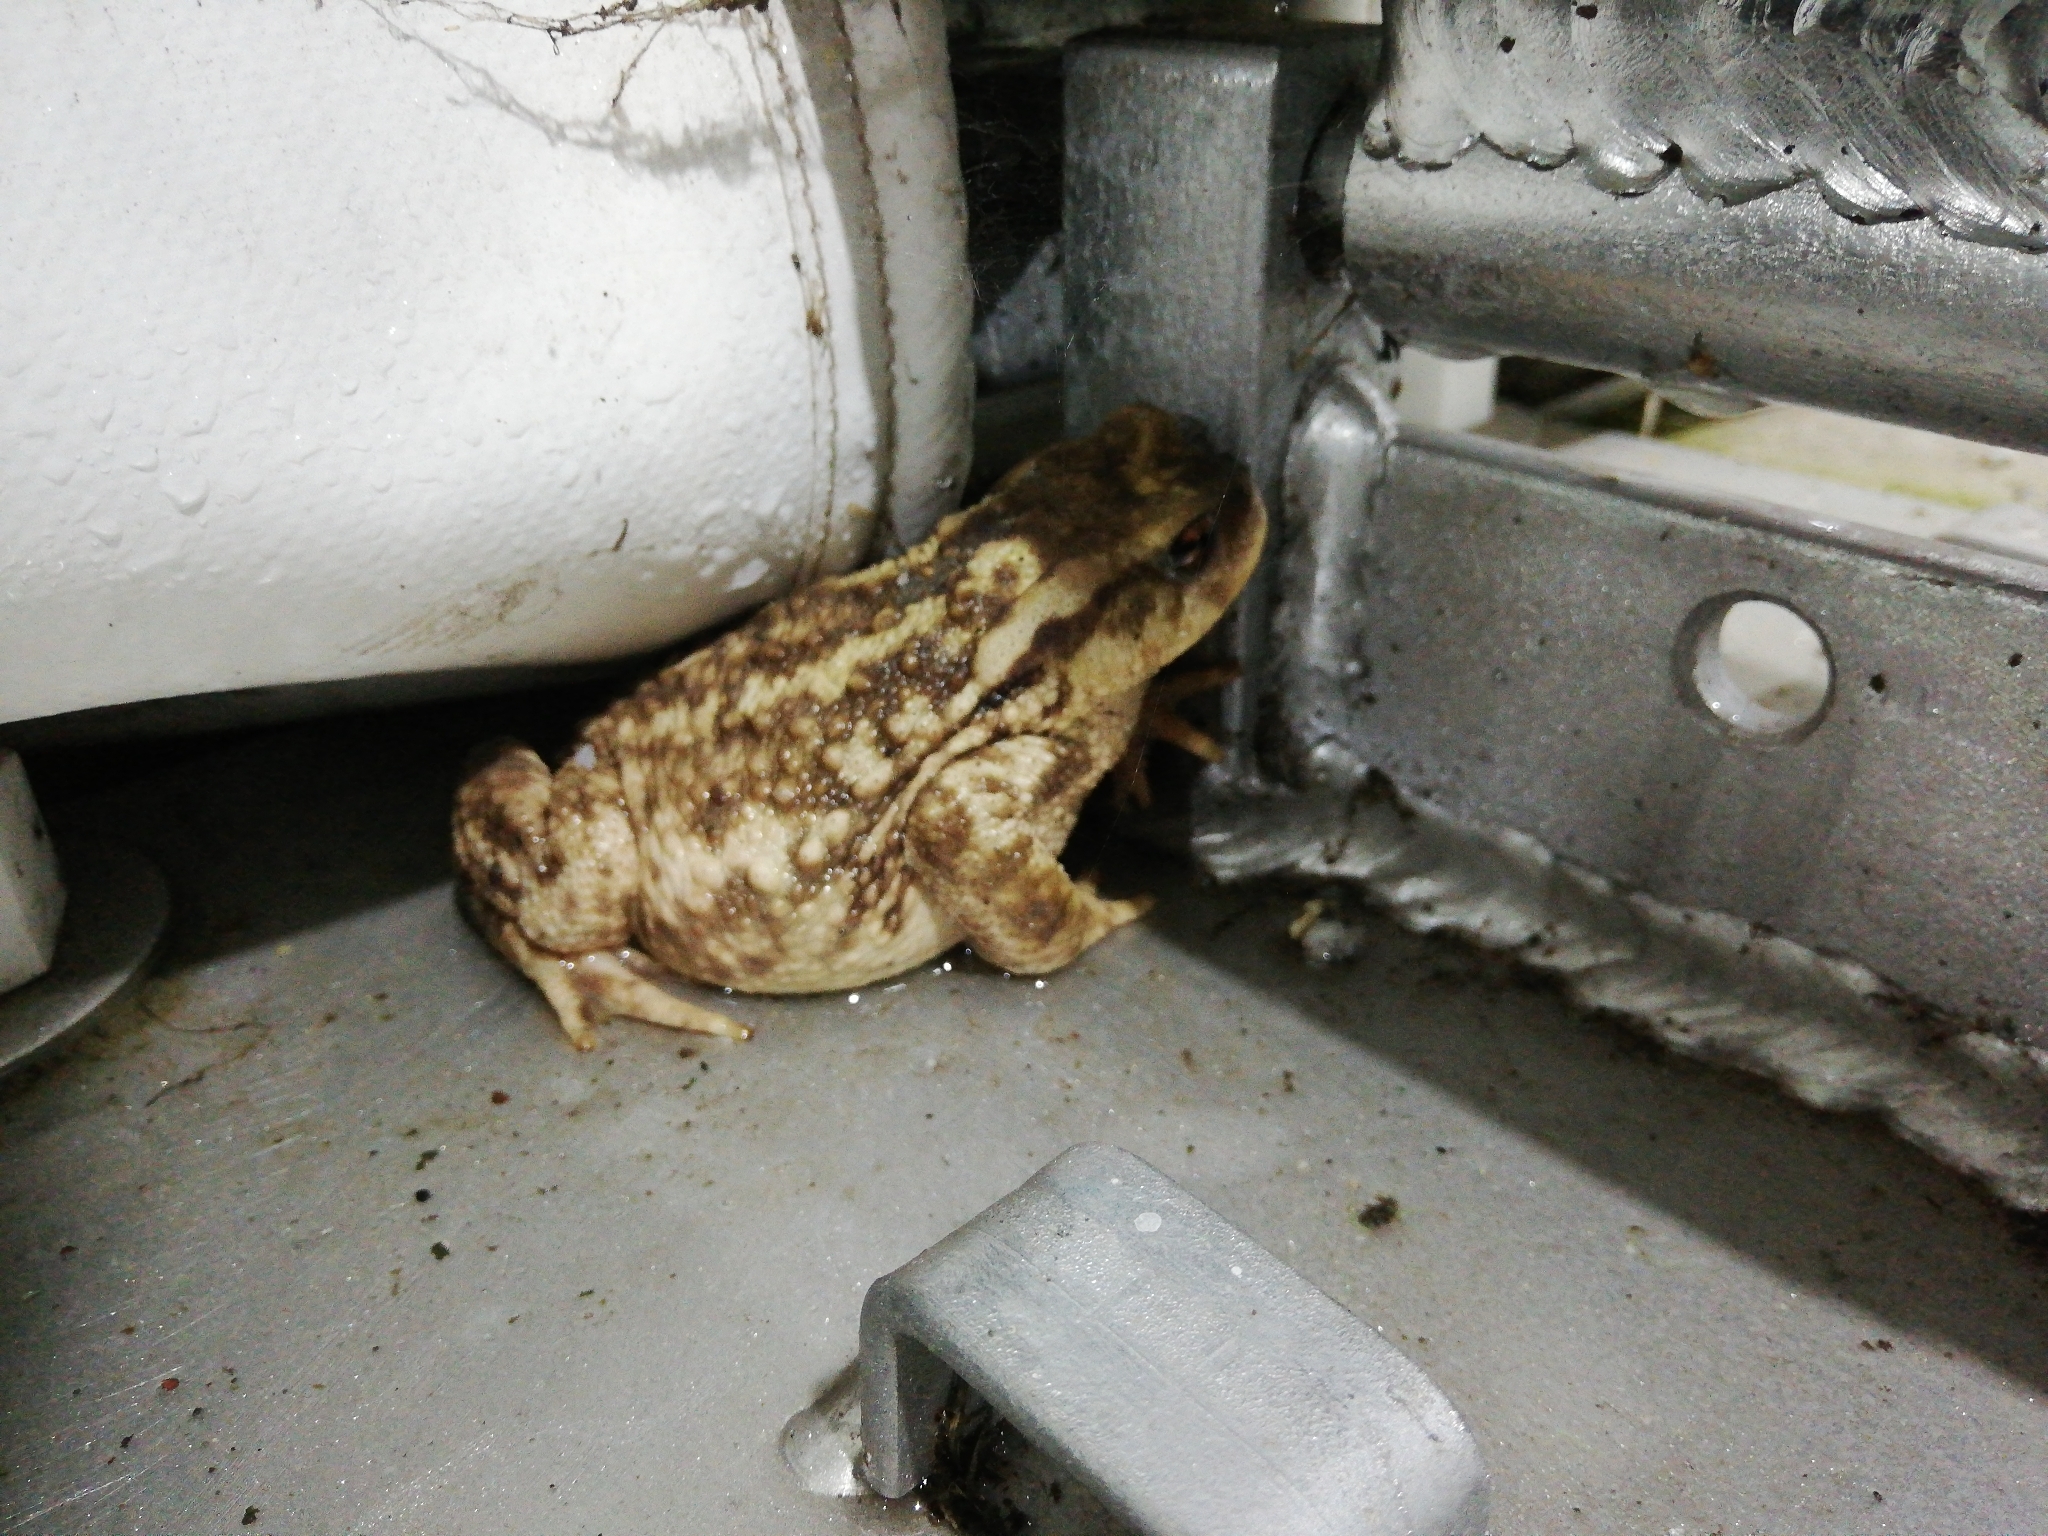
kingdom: Animalia
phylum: Chordata
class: Amphibia
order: Anura
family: Bufonidae
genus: Bufo
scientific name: Bufo spinosus
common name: Western common toad
